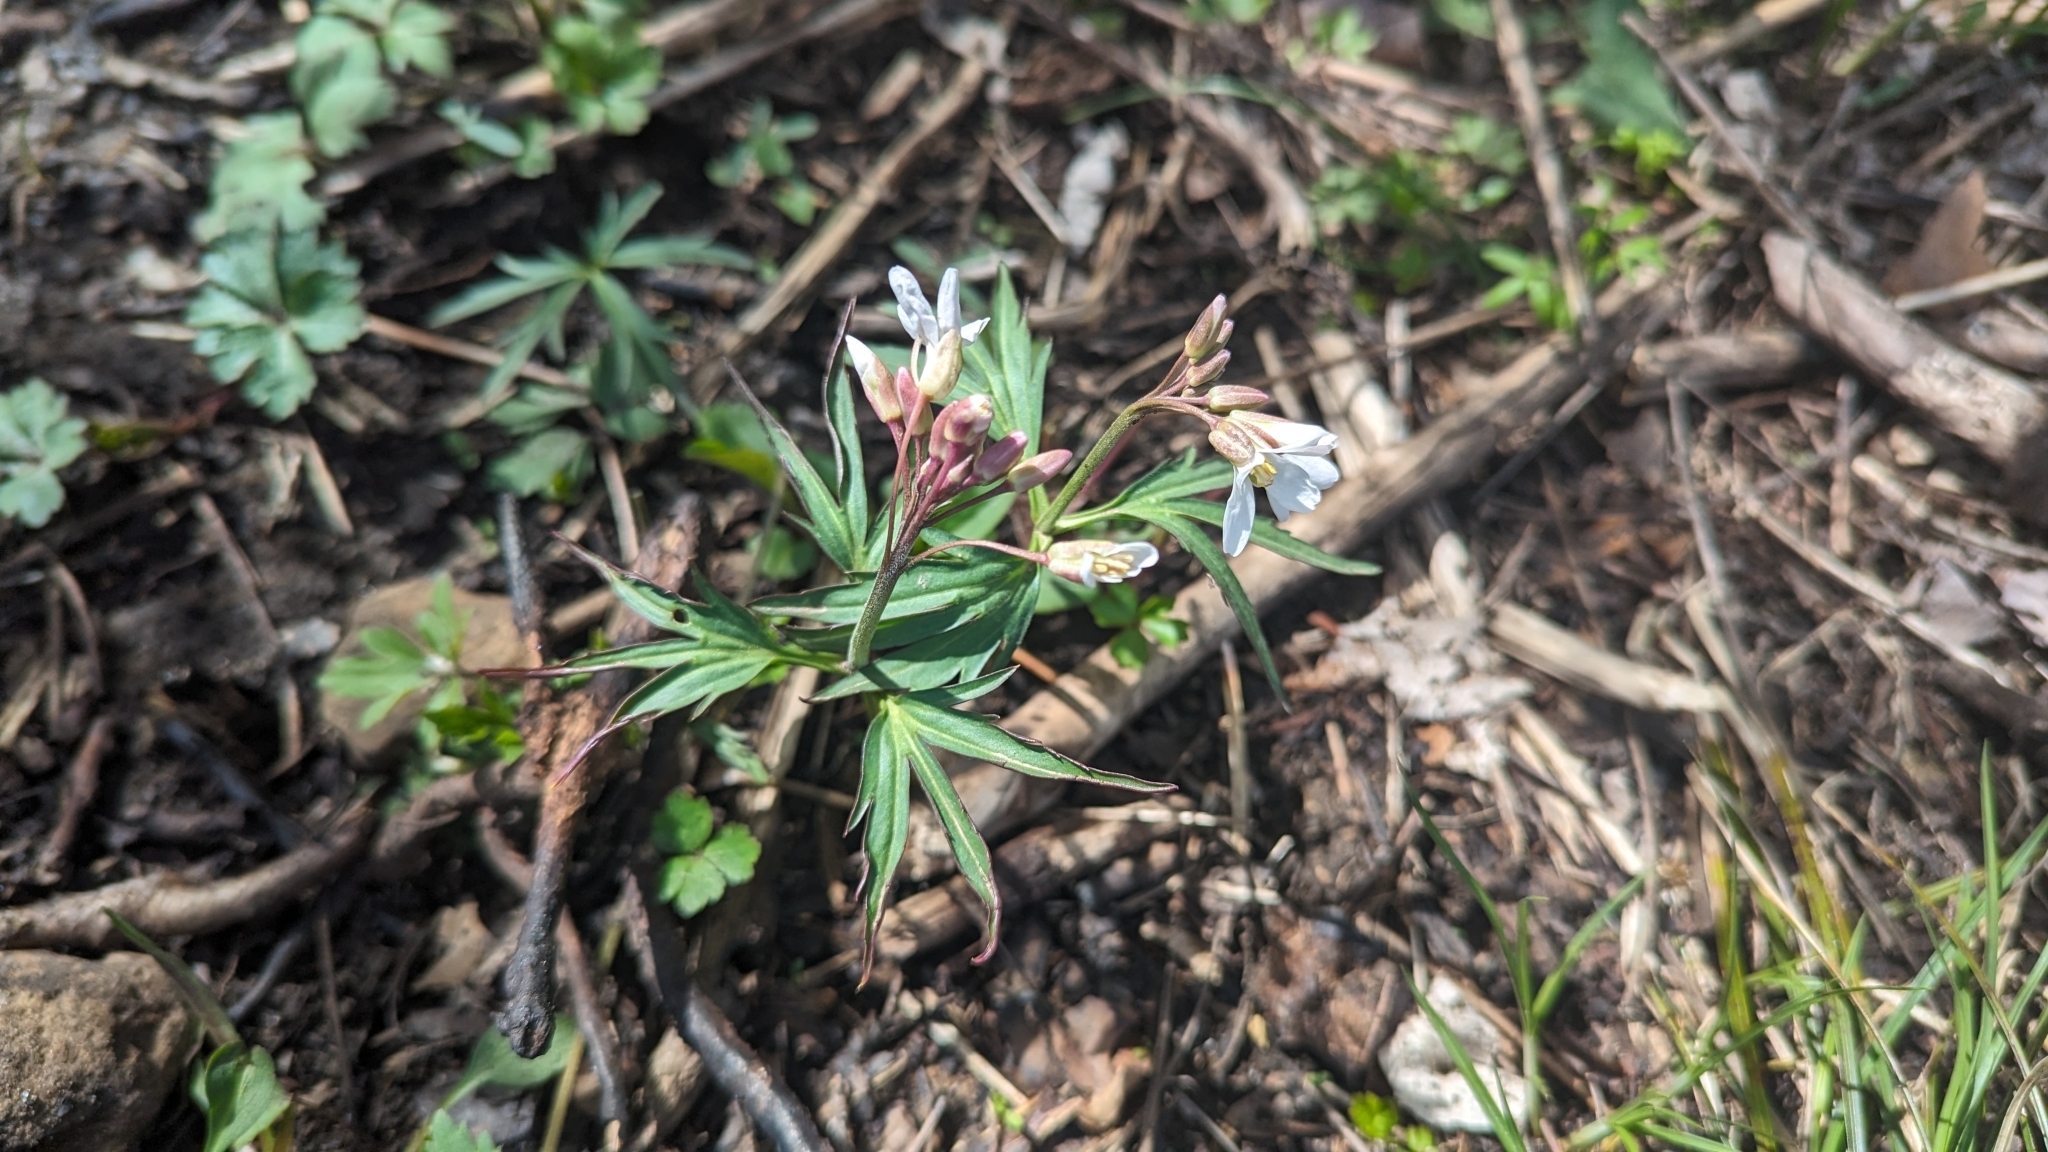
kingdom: Plantae
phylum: Tracheophyta
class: Magnoliopsida
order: Brassicales
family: Brassicaceae
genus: Cardamine
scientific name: Cardamine concatenata
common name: Cut-leaf toothcup
